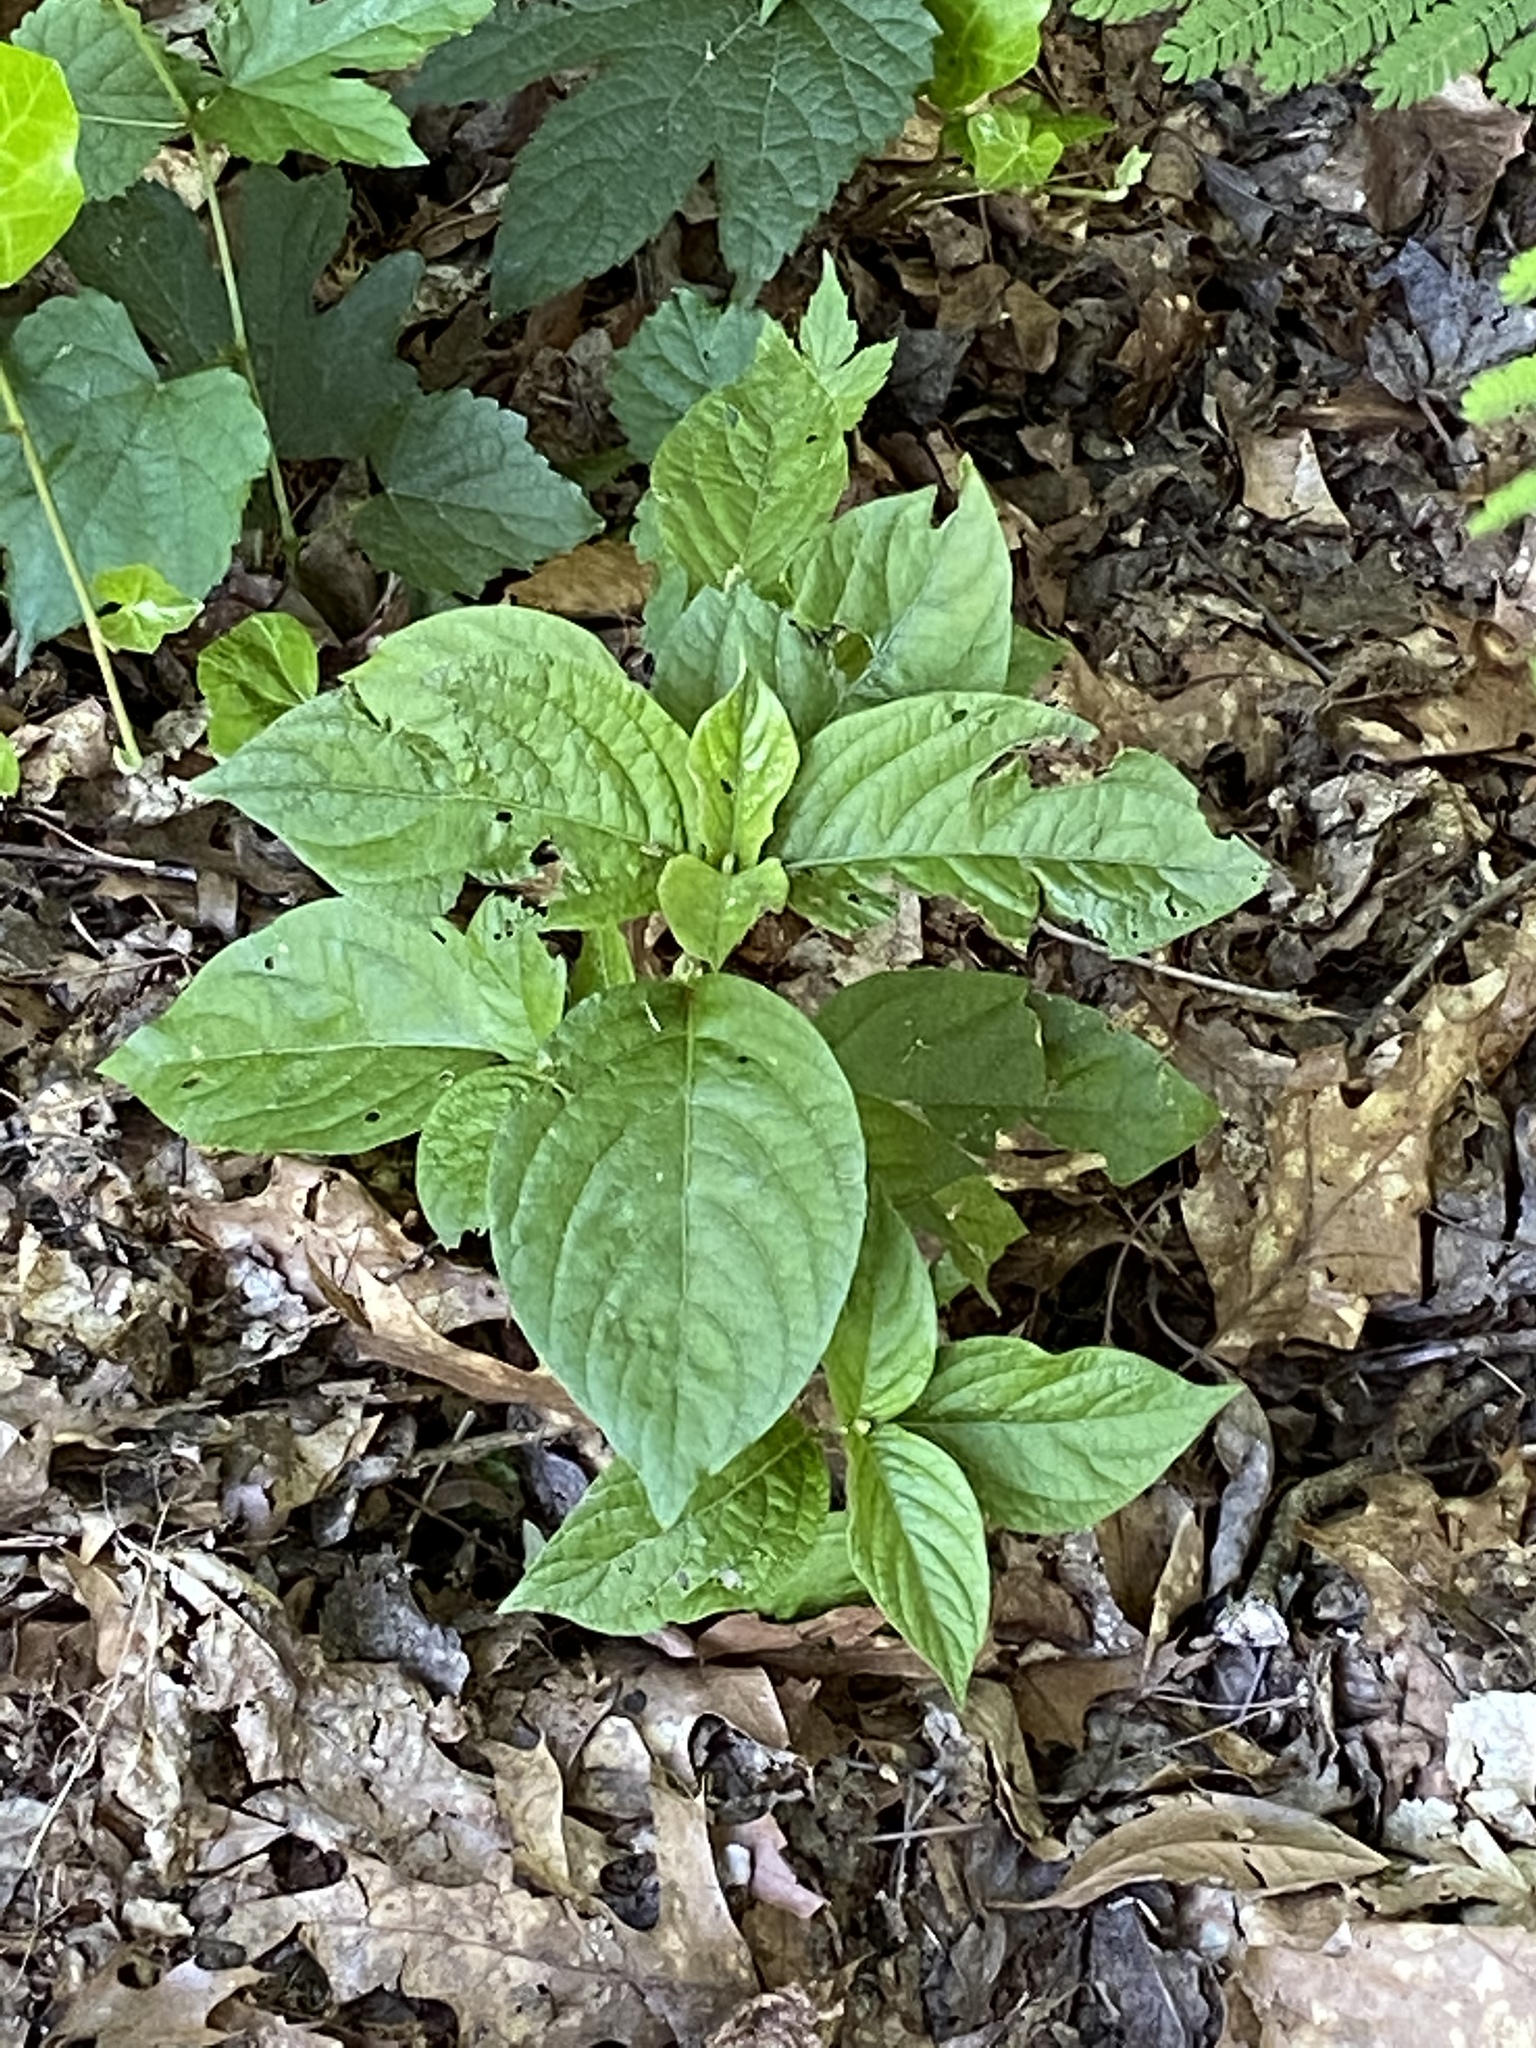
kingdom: Plantae
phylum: Tracheophyta
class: Magnoliopsida
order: Caryophyllales
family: Amaranthaceae
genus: Achyranthes
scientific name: Achyranthes bidentata
